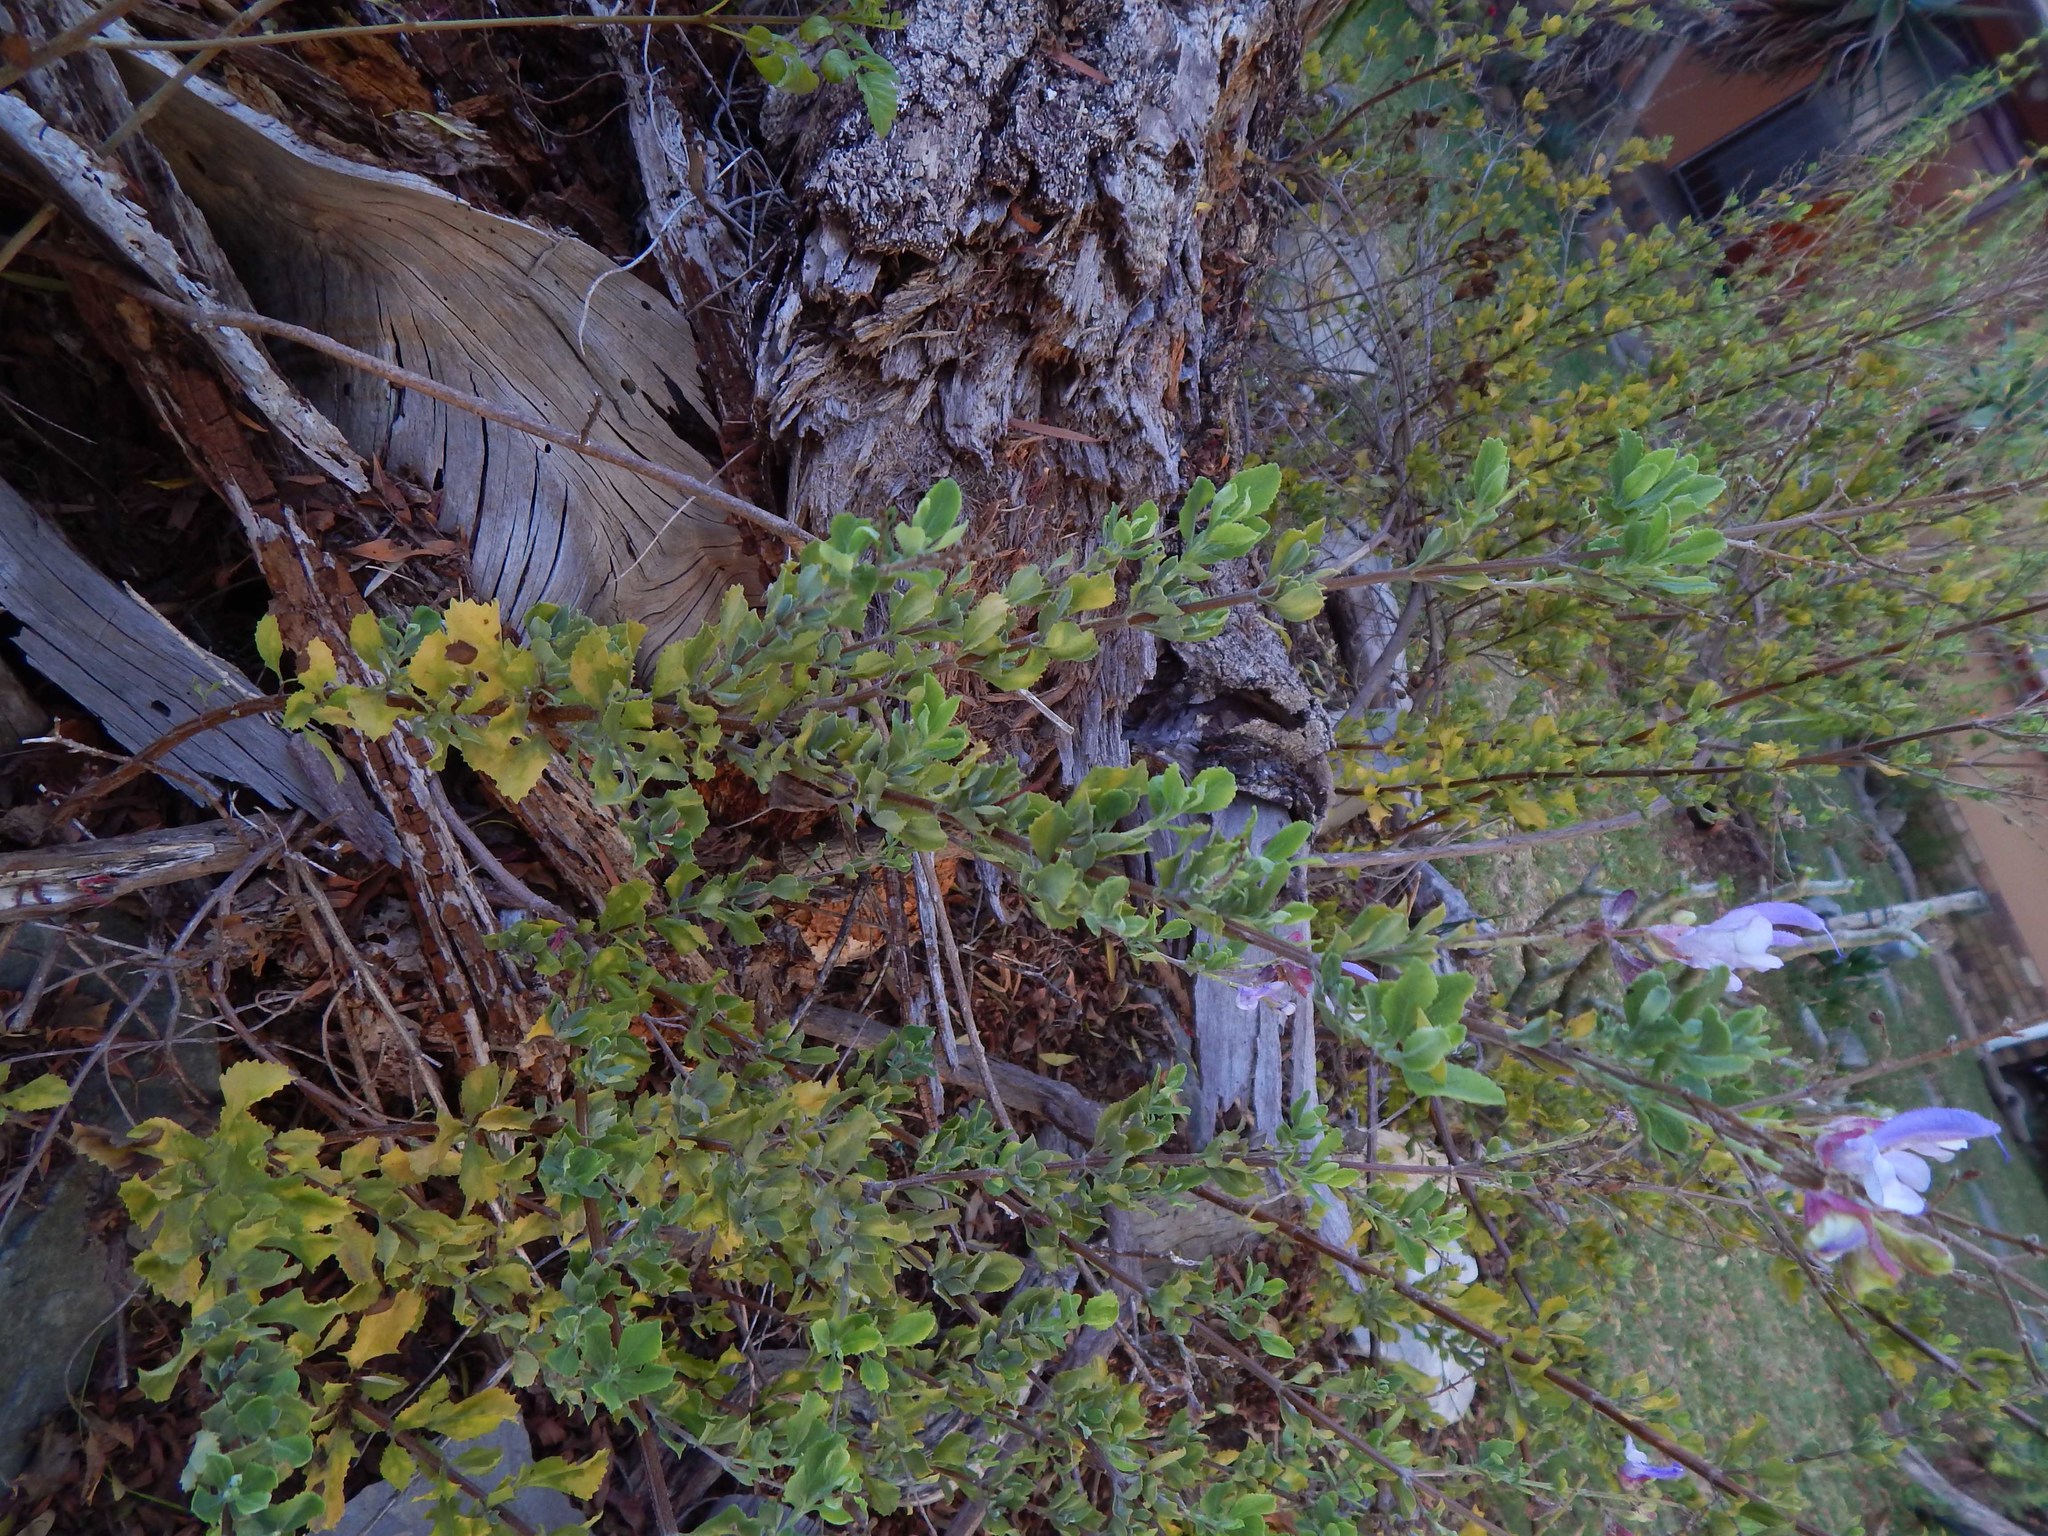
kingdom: Plantae
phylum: Tracheophyta
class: Magnoliopsida
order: Lamiales
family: Lamiaceae
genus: Salvia
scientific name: Salvia chamelaeagnea
